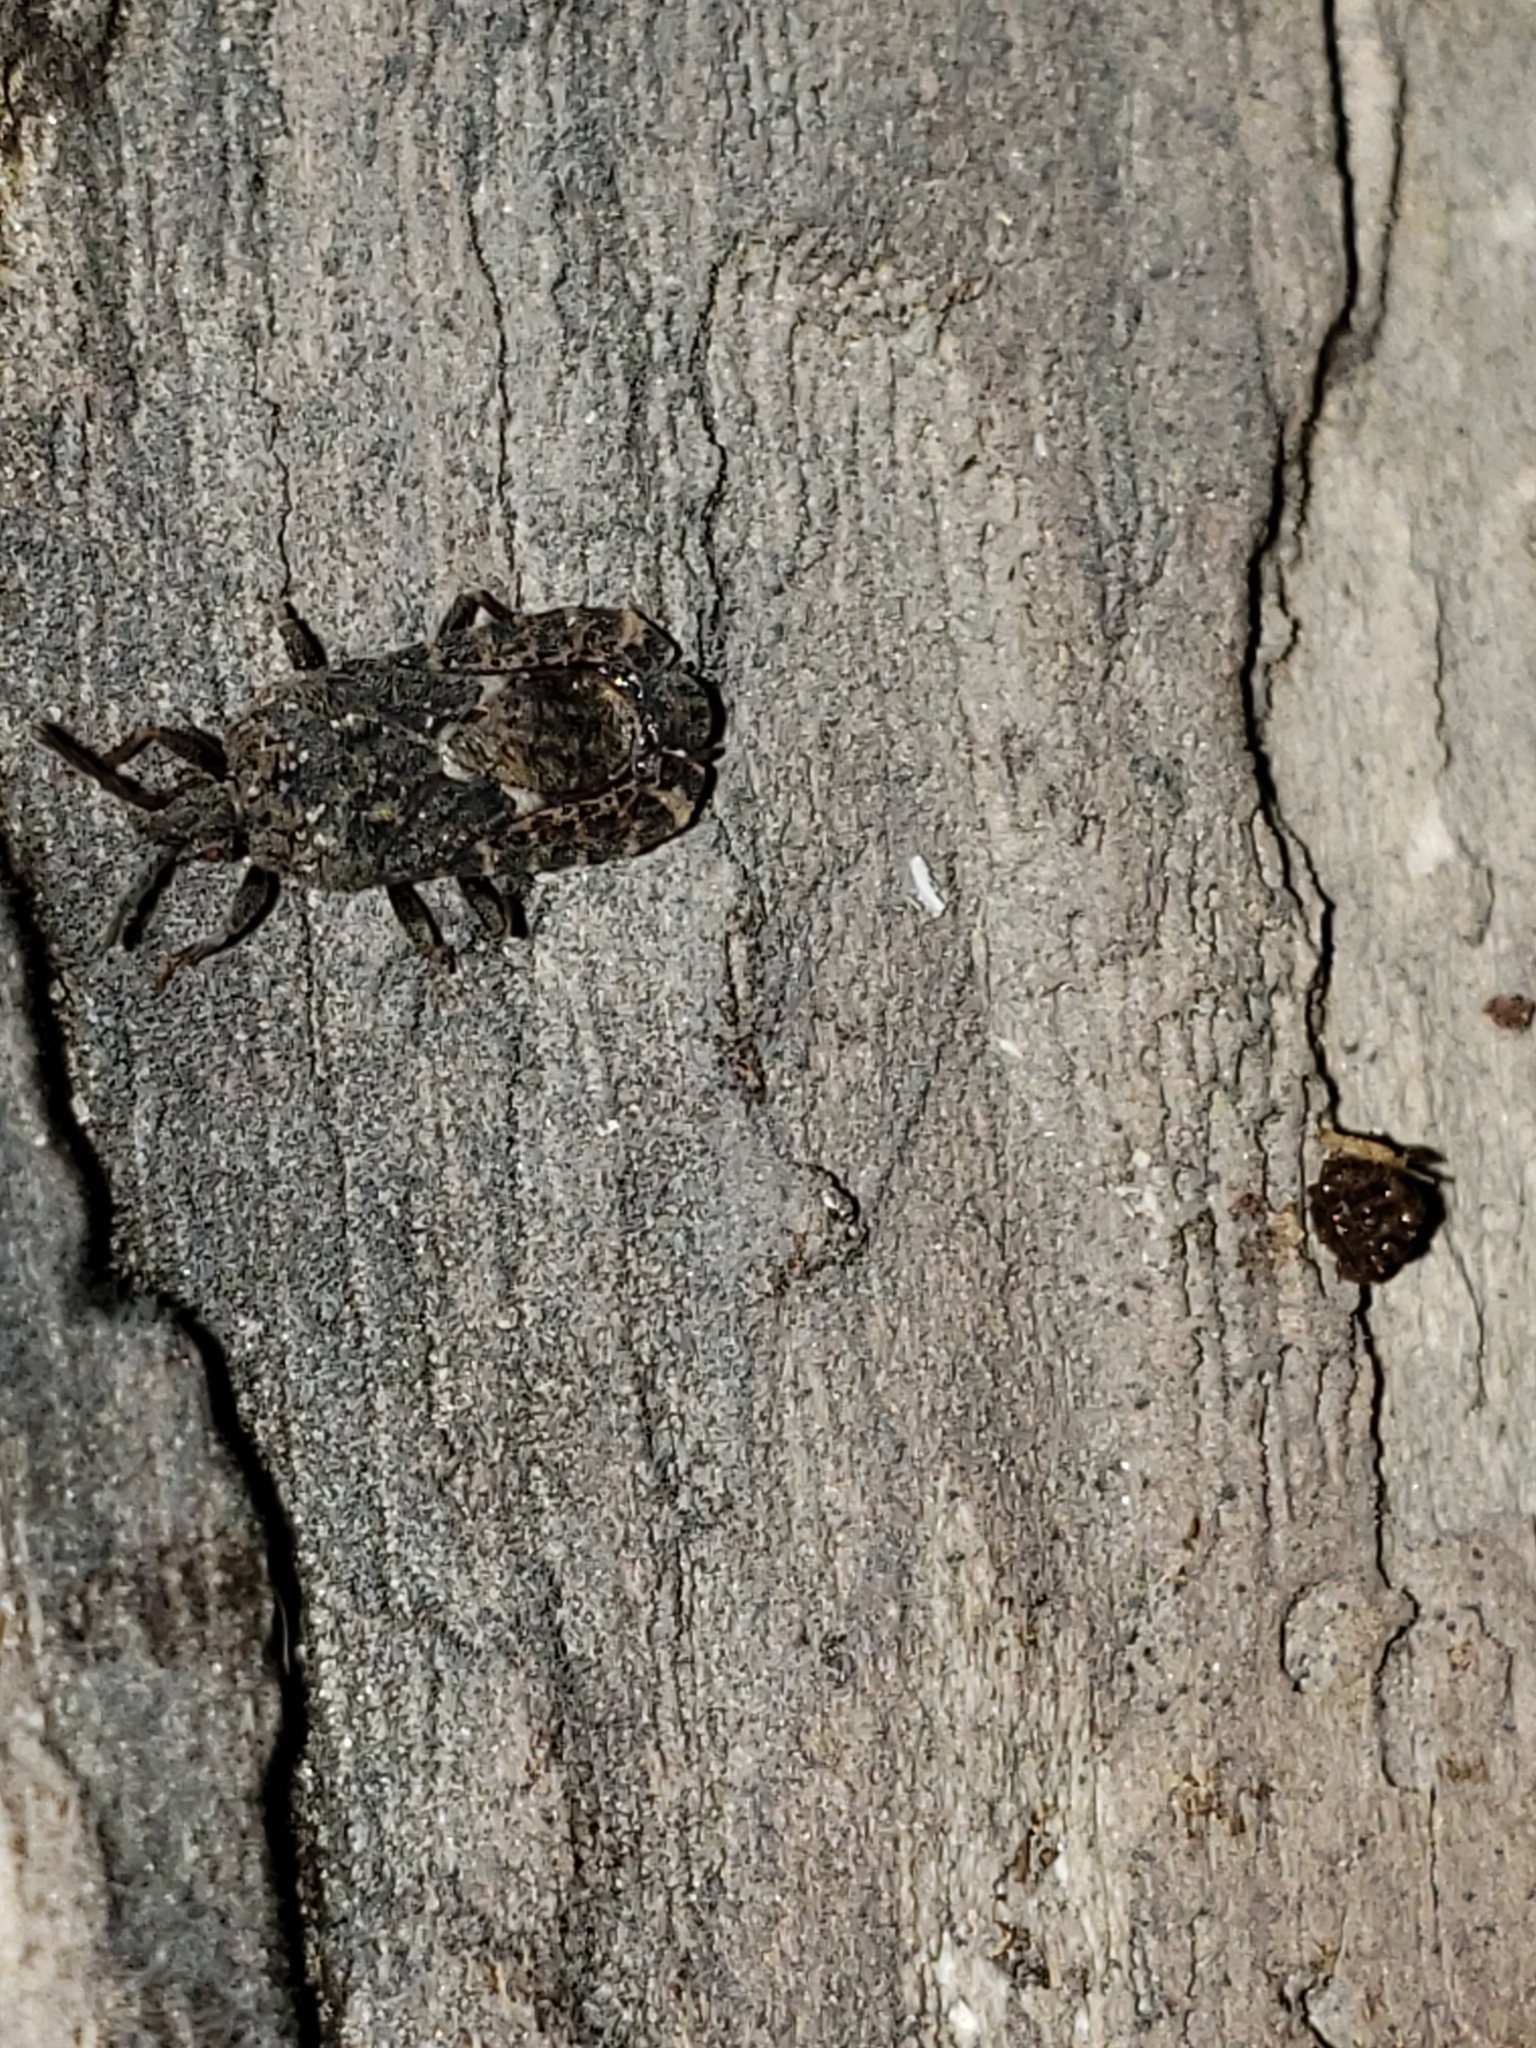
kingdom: Animalia
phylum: Arthropoda
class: Insecta
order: Hemiptera
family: Aradidae
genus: Mezira
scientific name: Mezira
